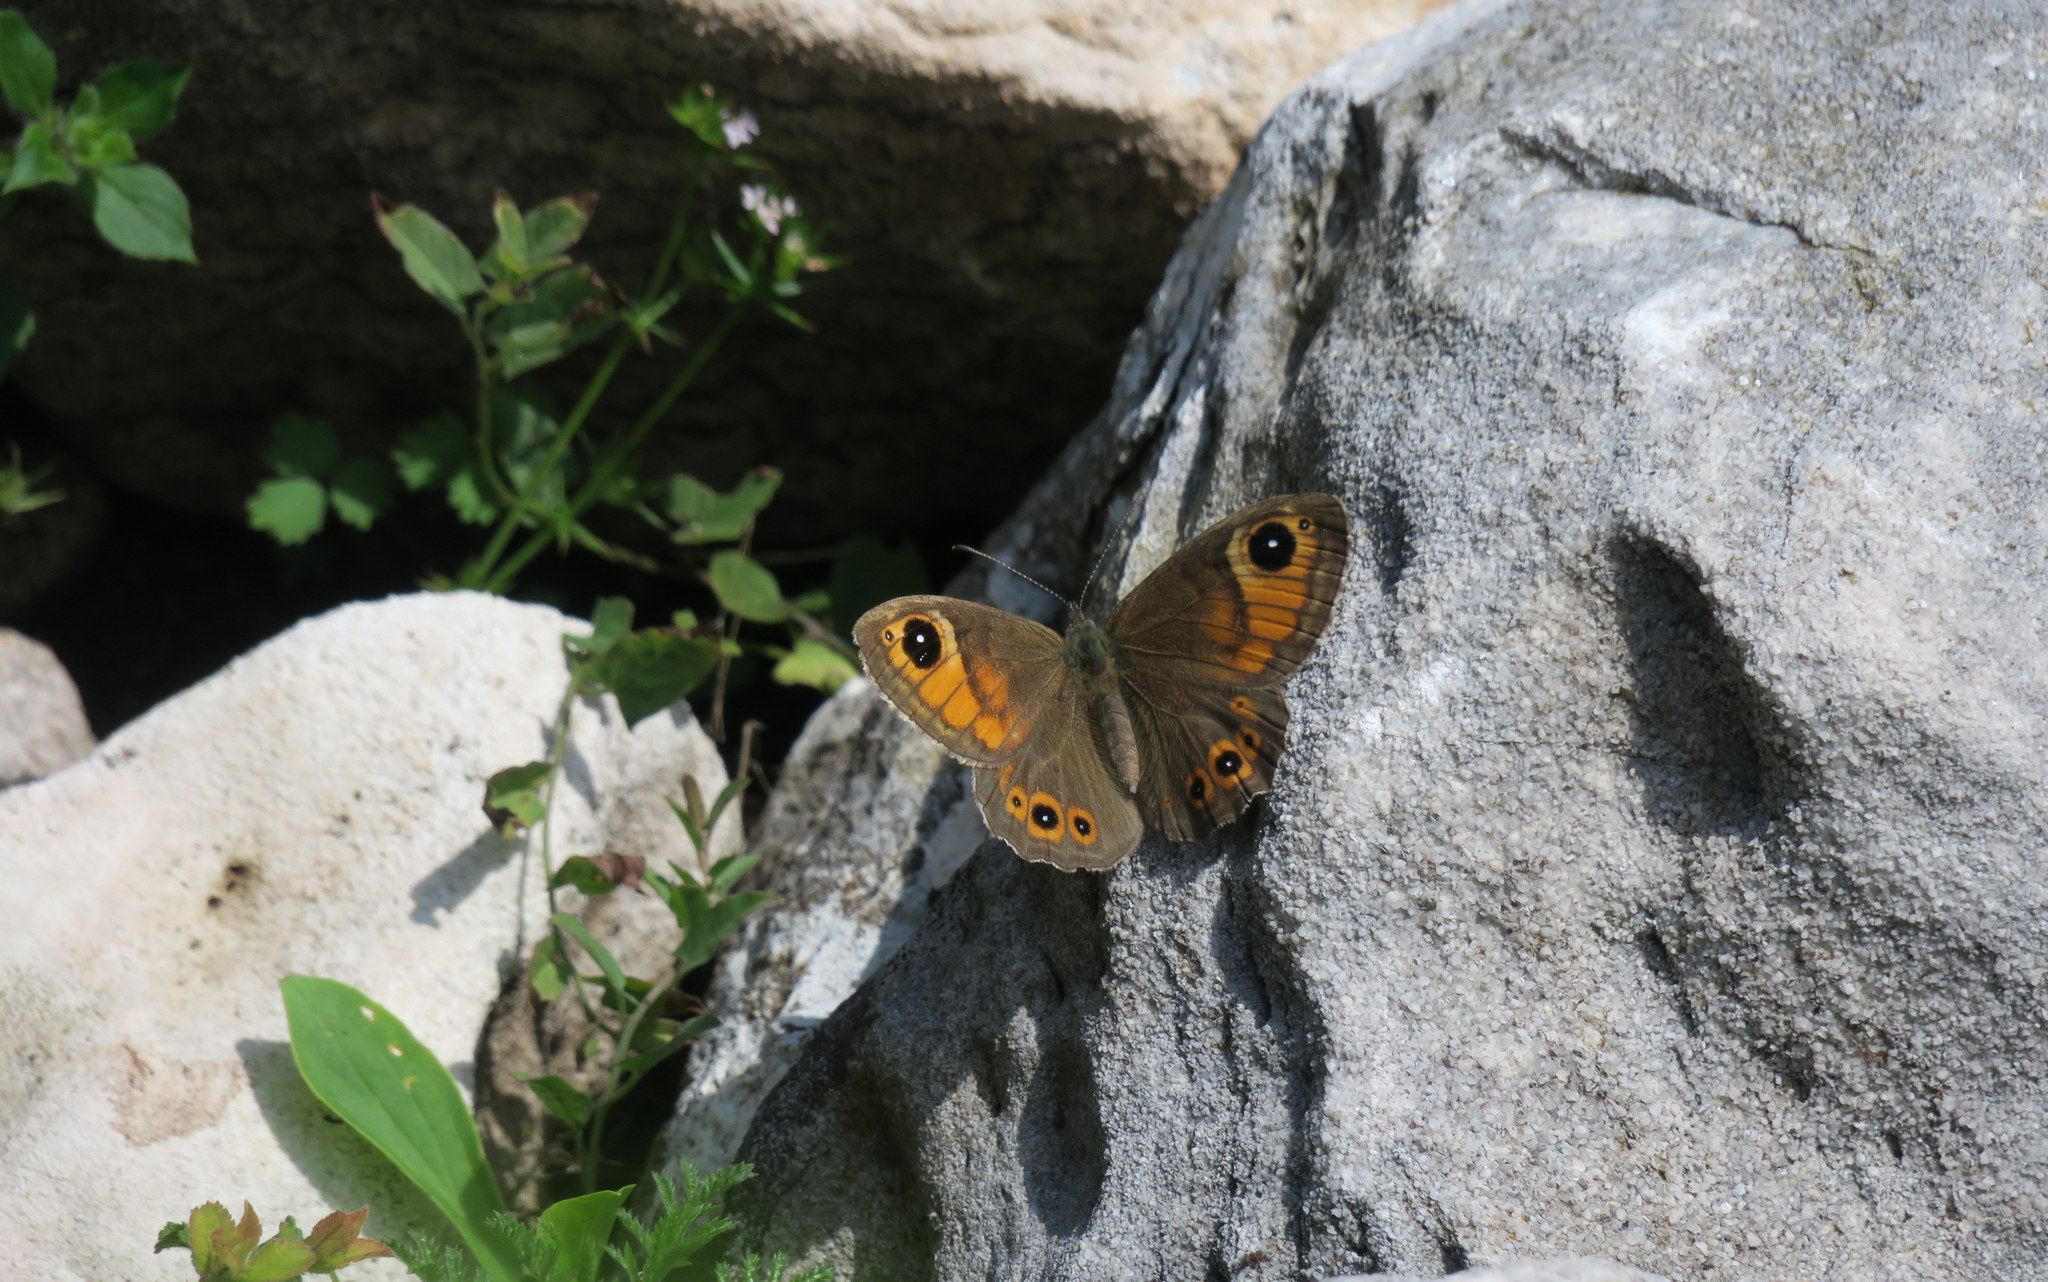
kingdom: Animalia
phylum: Arthropoda
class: Insecta
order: Lepidoptera
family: Nymphalidae
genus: Pararge
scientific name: Pararge Lasiommata maera
